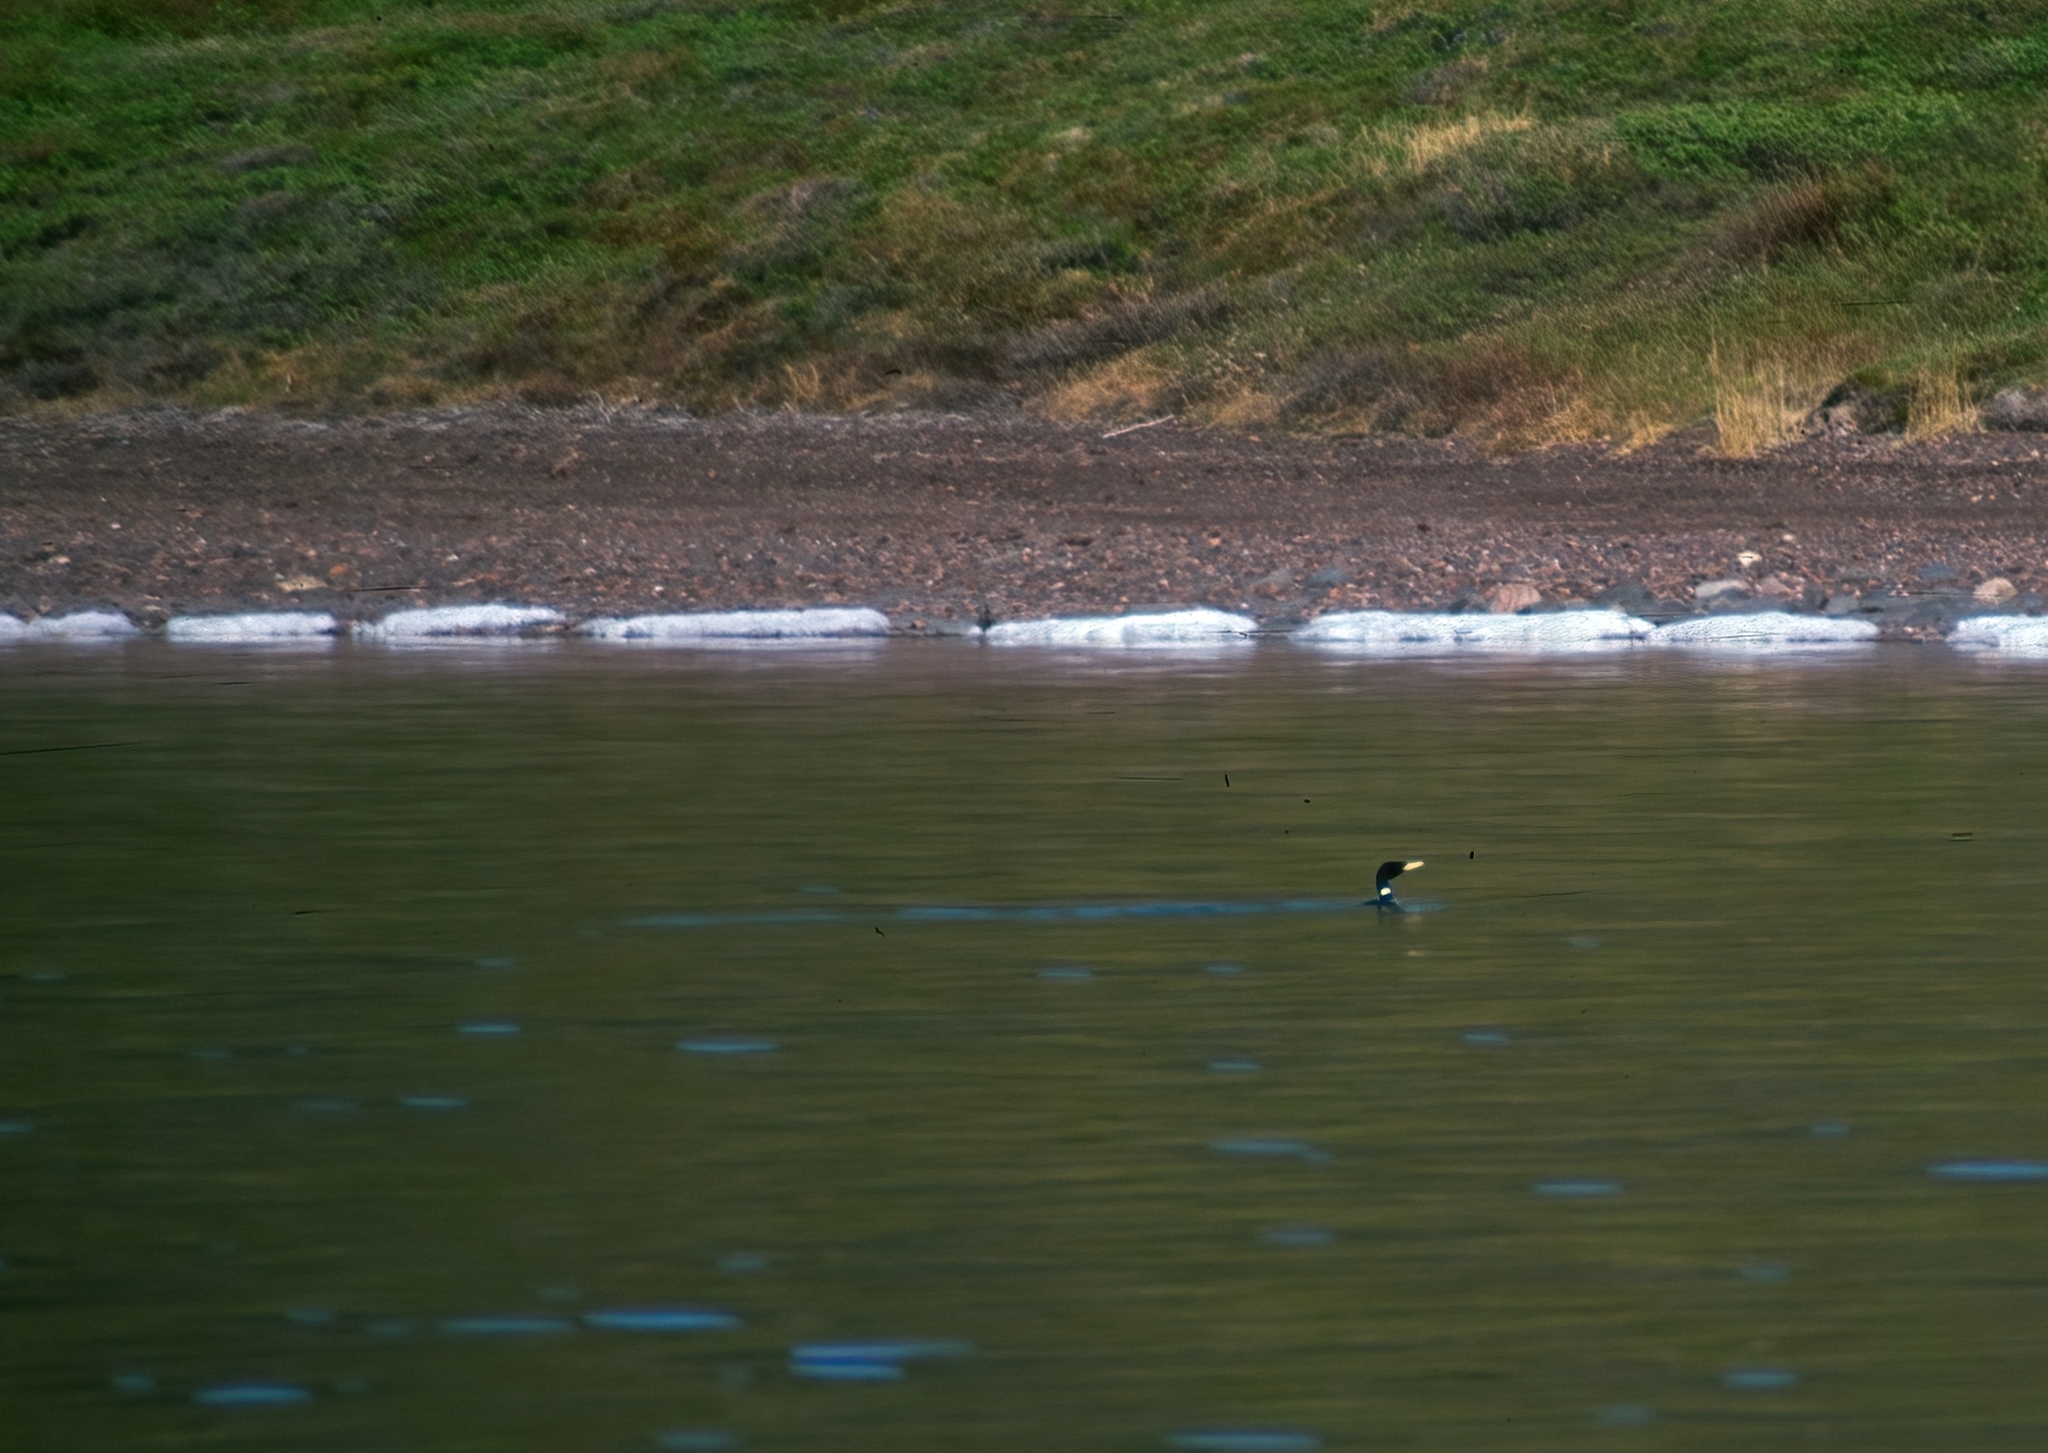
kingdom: Animalia
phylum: Chordata
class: Aves
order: Gaviiformes
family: Gaviidae
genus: Gavia
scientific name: Gavia adamsii
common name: Yellow-billed loon
